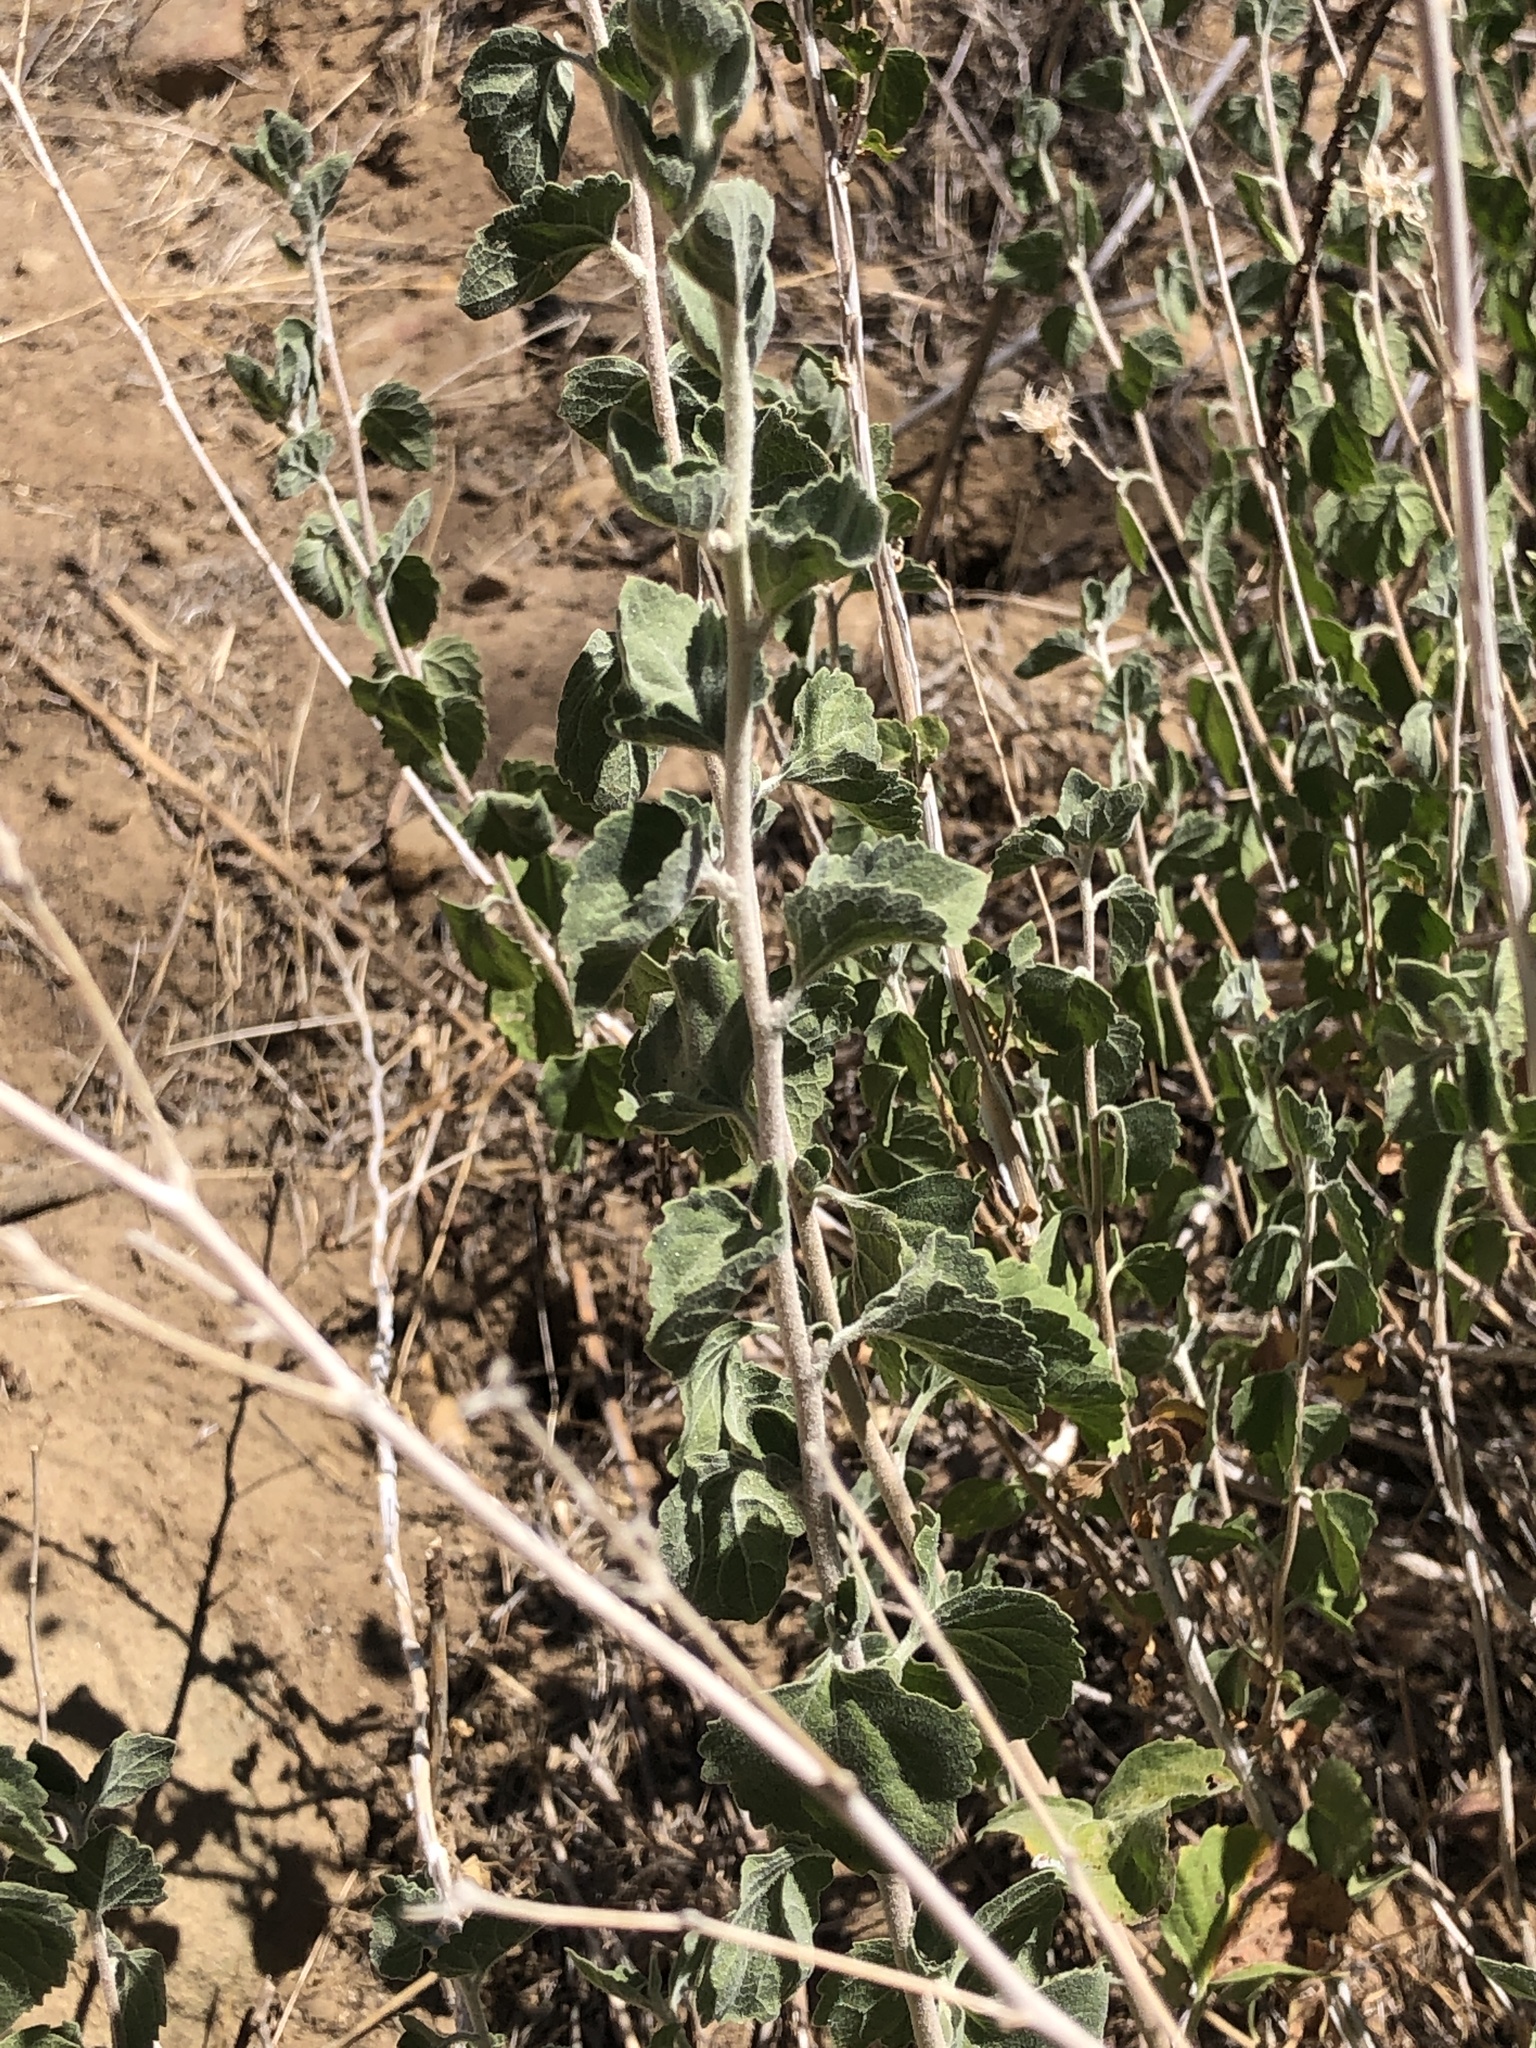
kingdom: Plantae
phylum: Tracheophyta
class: Magnoliopsida
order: Asterales
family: Asteraceae
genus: Brickellia
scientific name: Brickellia californica
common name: California brickellbush
